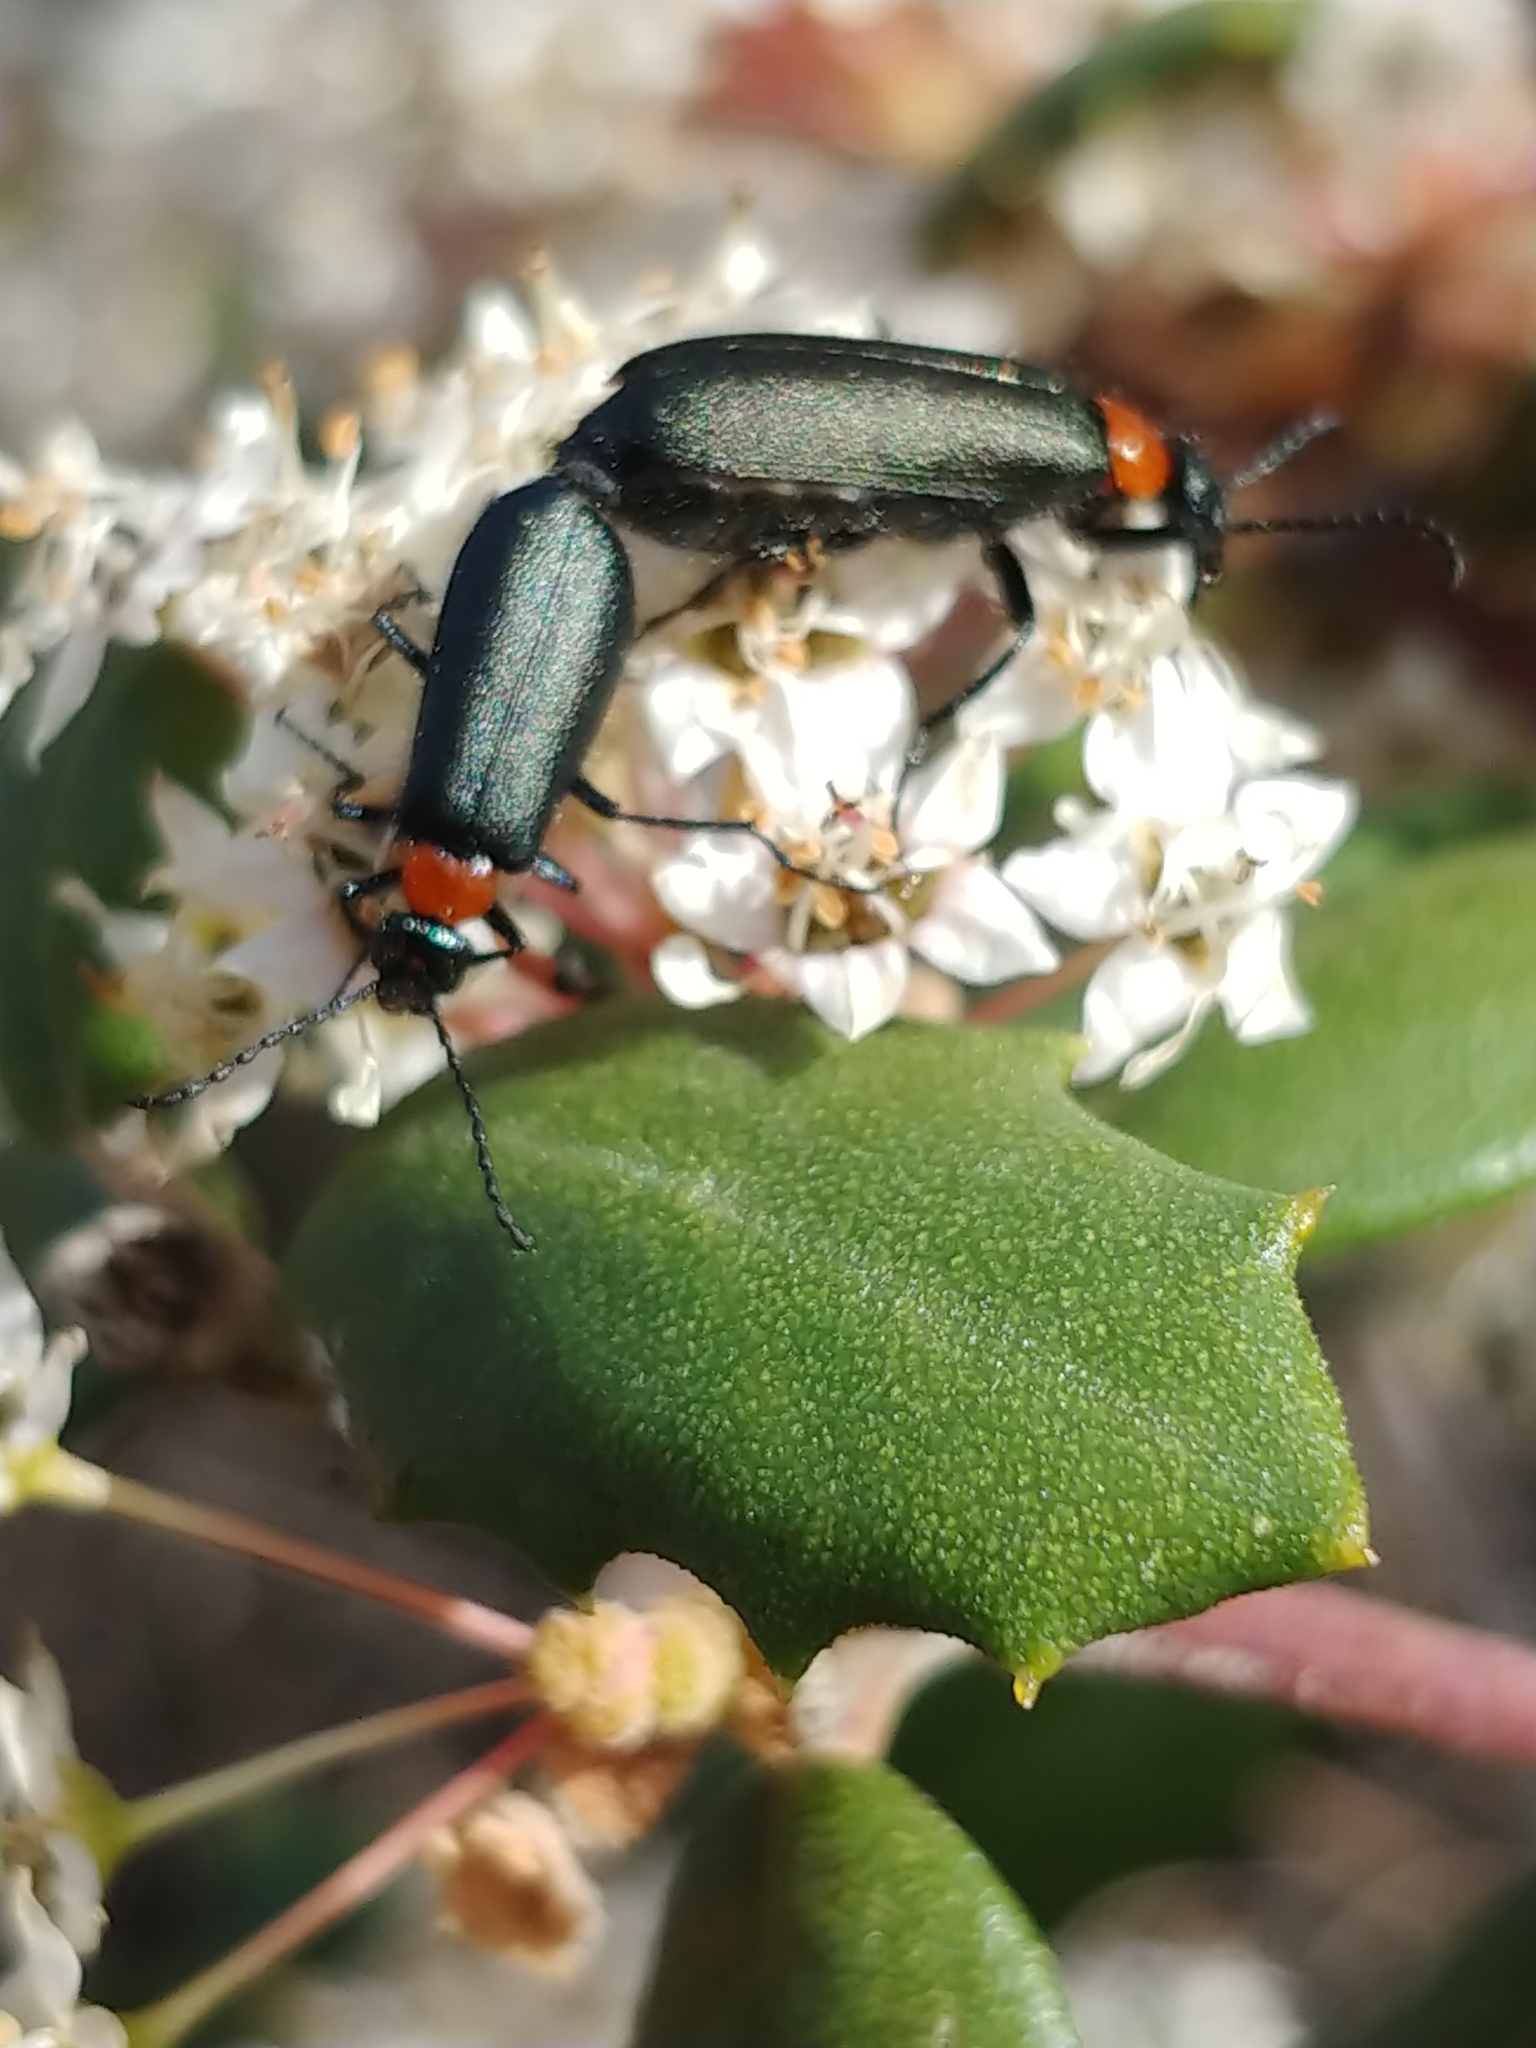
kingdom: Animalia
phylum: Arthropoda
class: Insecta
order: Coleoptera
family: Meloidae
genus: Lytta
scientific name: Lytta crotchi
